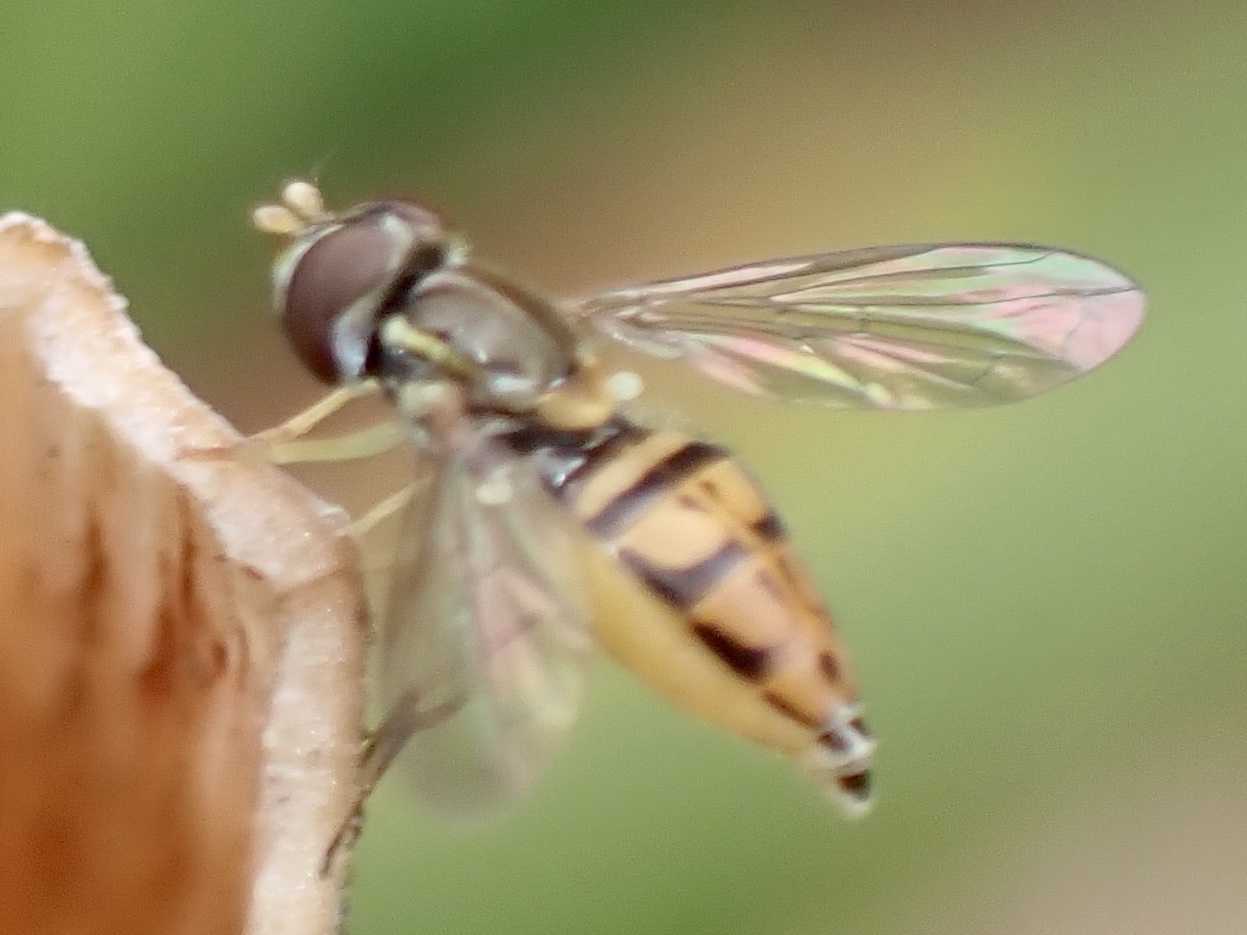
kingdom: Animalia
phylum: Arthropoda
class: Insecta
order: Diptera
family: Syrphidae
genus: Toxomerus
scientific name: Toxomerus marginatus
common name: Syrphid fly
